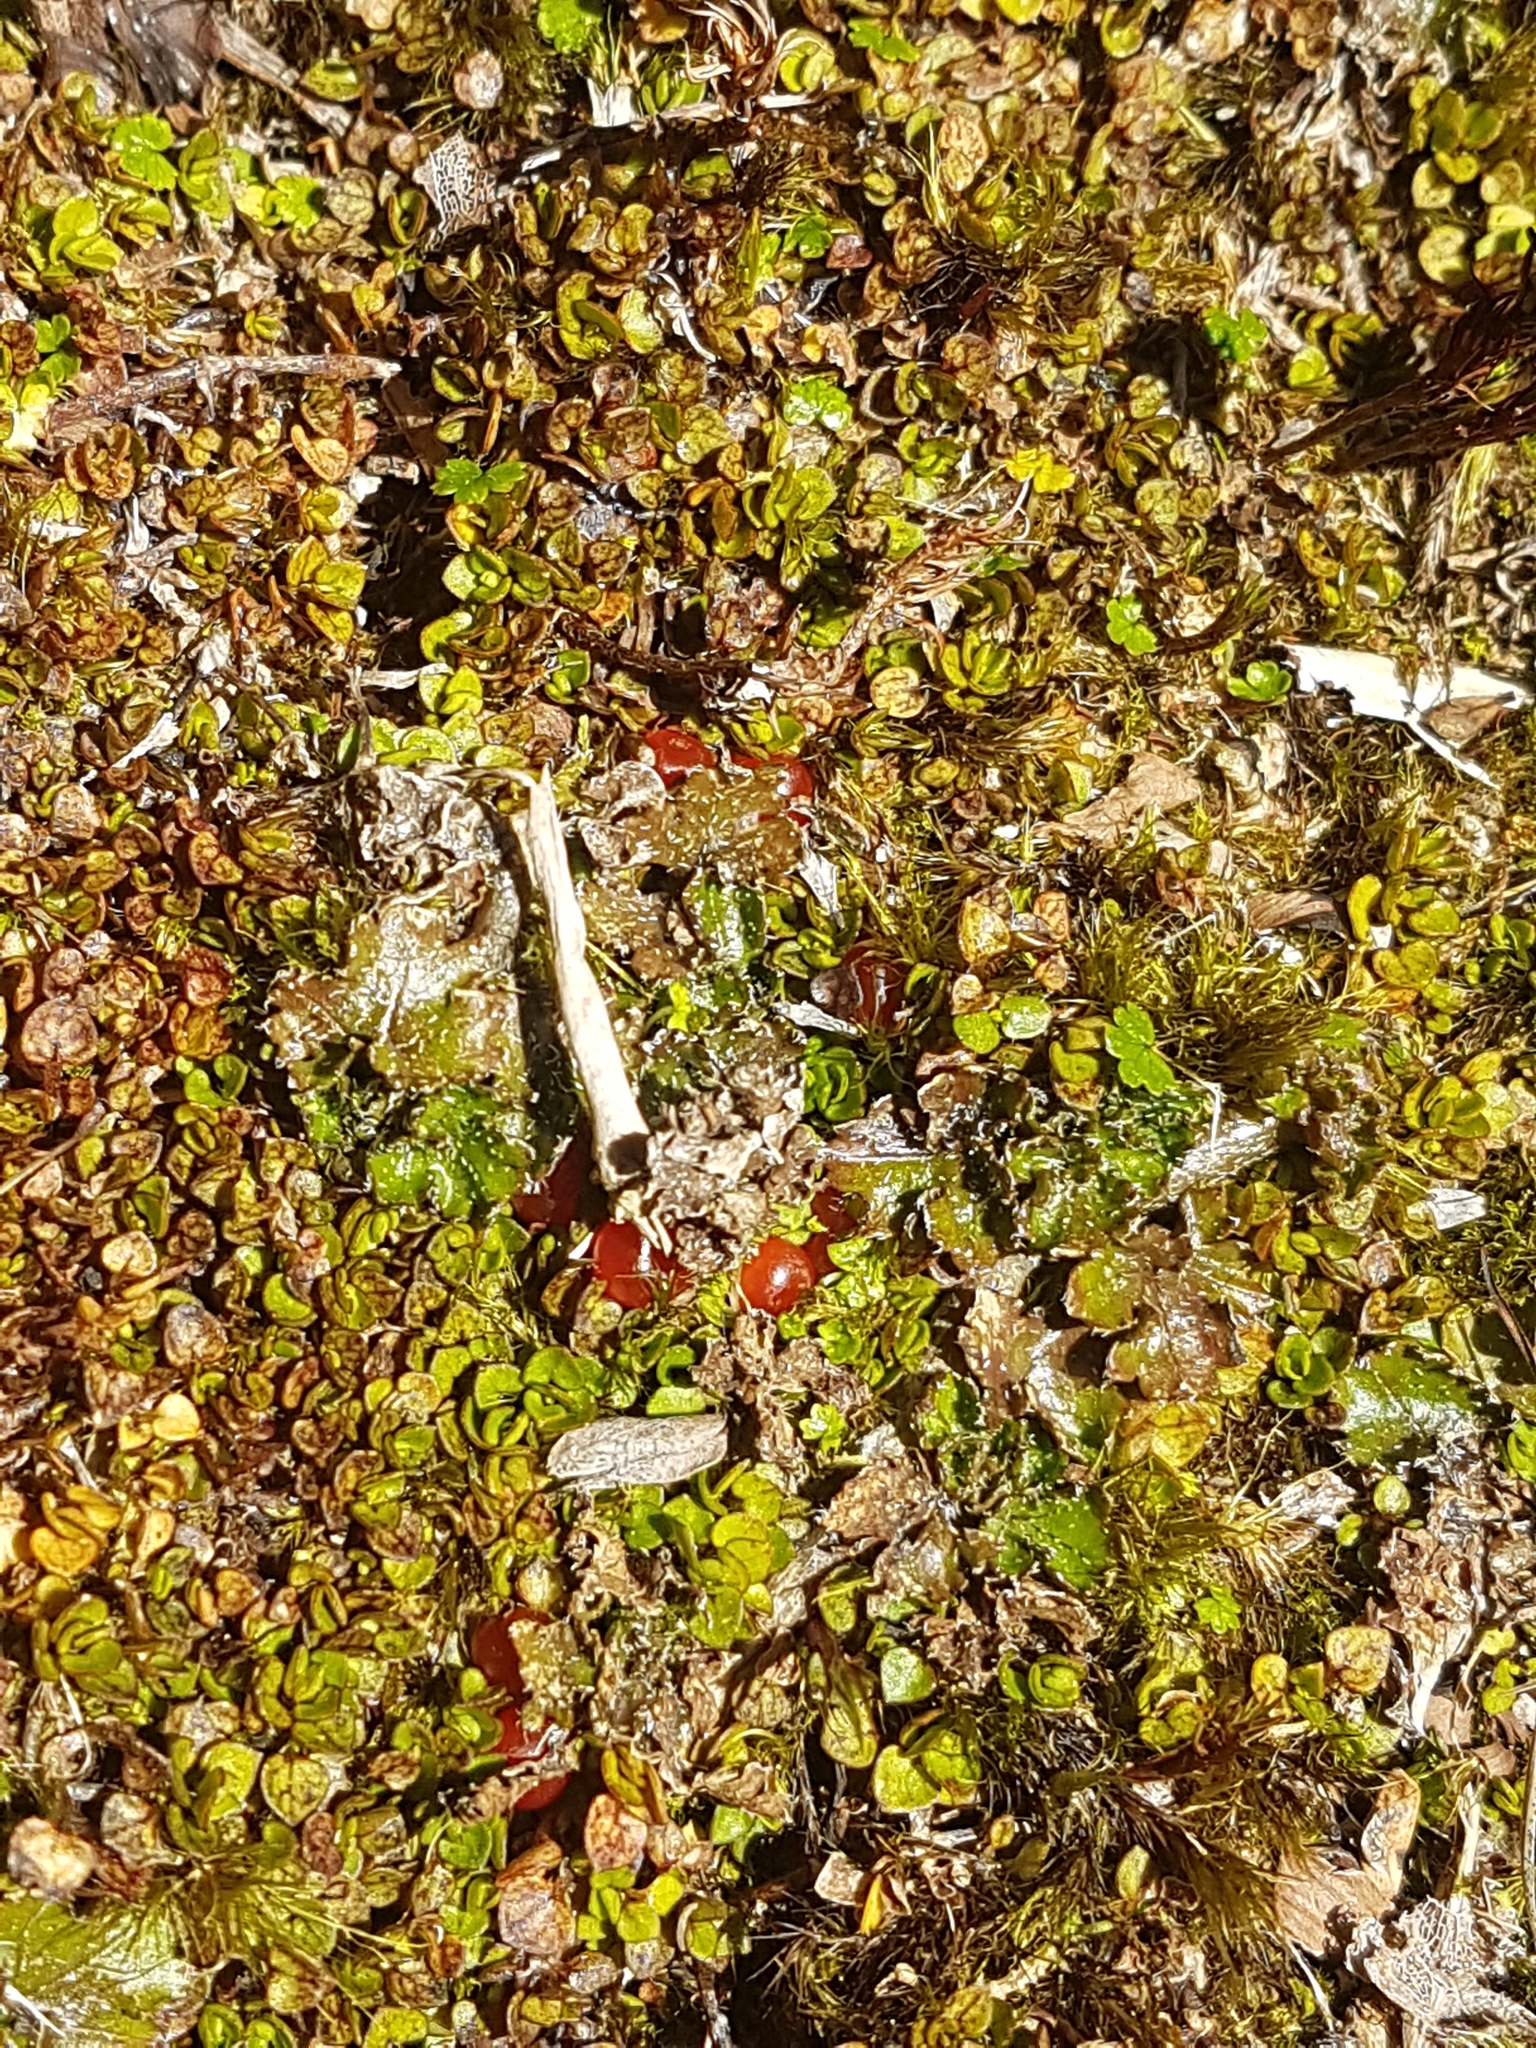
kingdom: Plantae
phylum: Tracheophyta
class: Magnoliopsida
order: Gentianales
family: Rubiaceae
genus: Nertera
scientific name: Nertera ciliata
